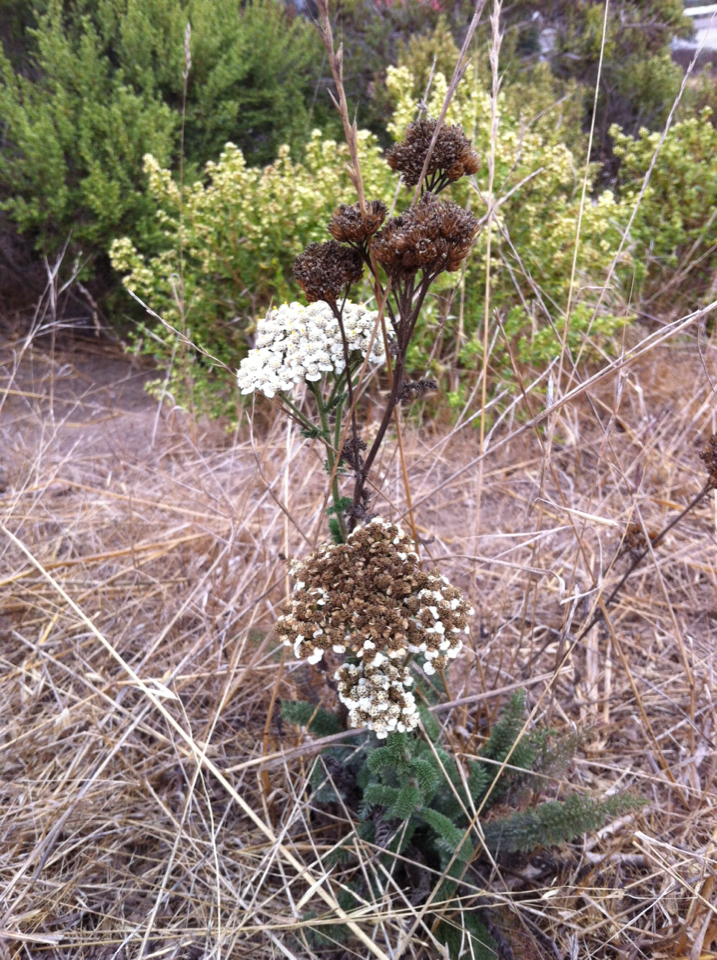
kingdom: Plantae
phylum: Tracheophyta
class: Magnoliopsida
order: Asterales
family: Asteraceae
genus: Achillea
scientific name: Achillea millefolium
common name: Yarrow
